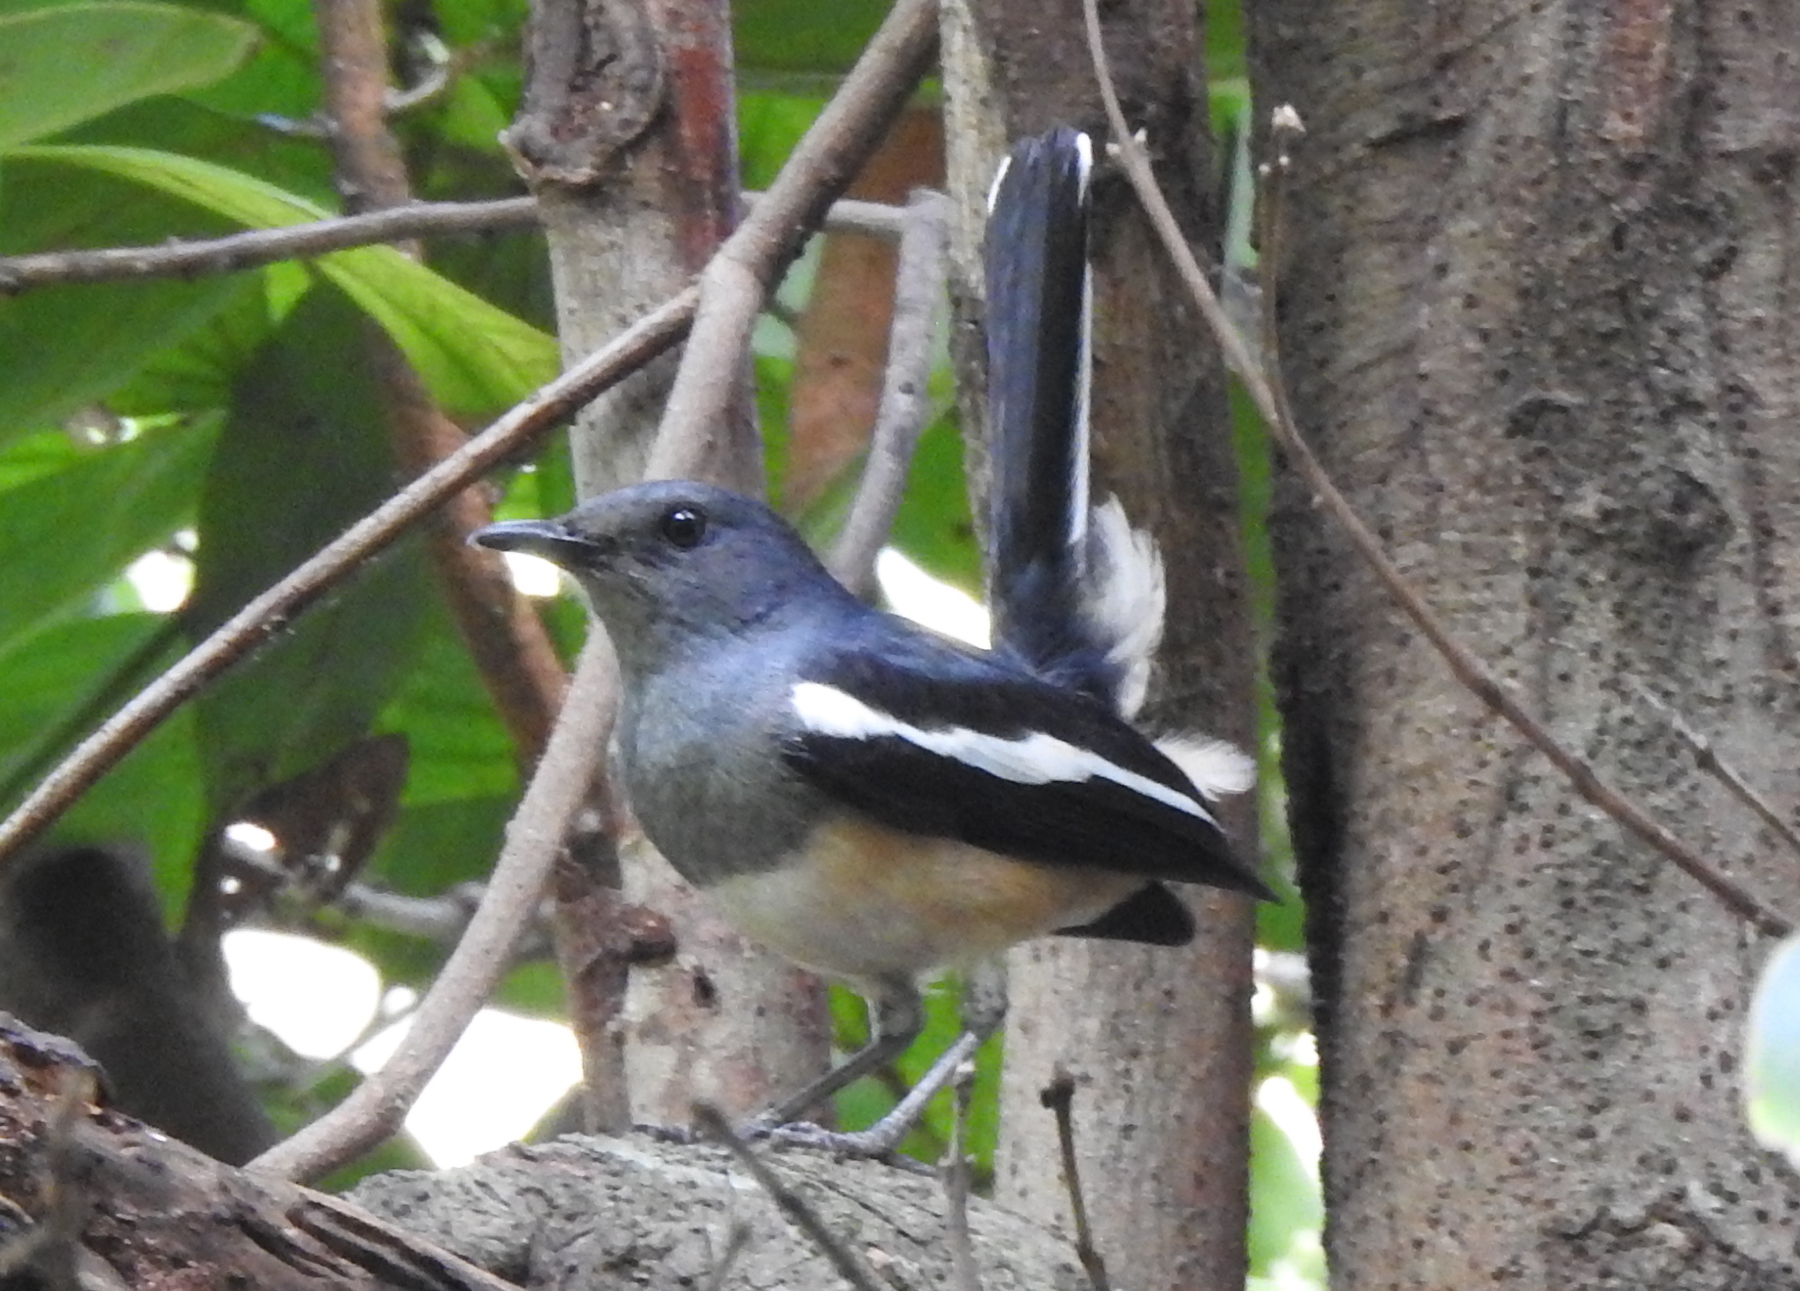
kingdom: Animalia
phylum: Chordata
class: Aves
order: Passeriformes
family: Muscicapidae
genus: Copsychus
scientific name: Copsychus saularis
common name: Oriental magpie-robin
